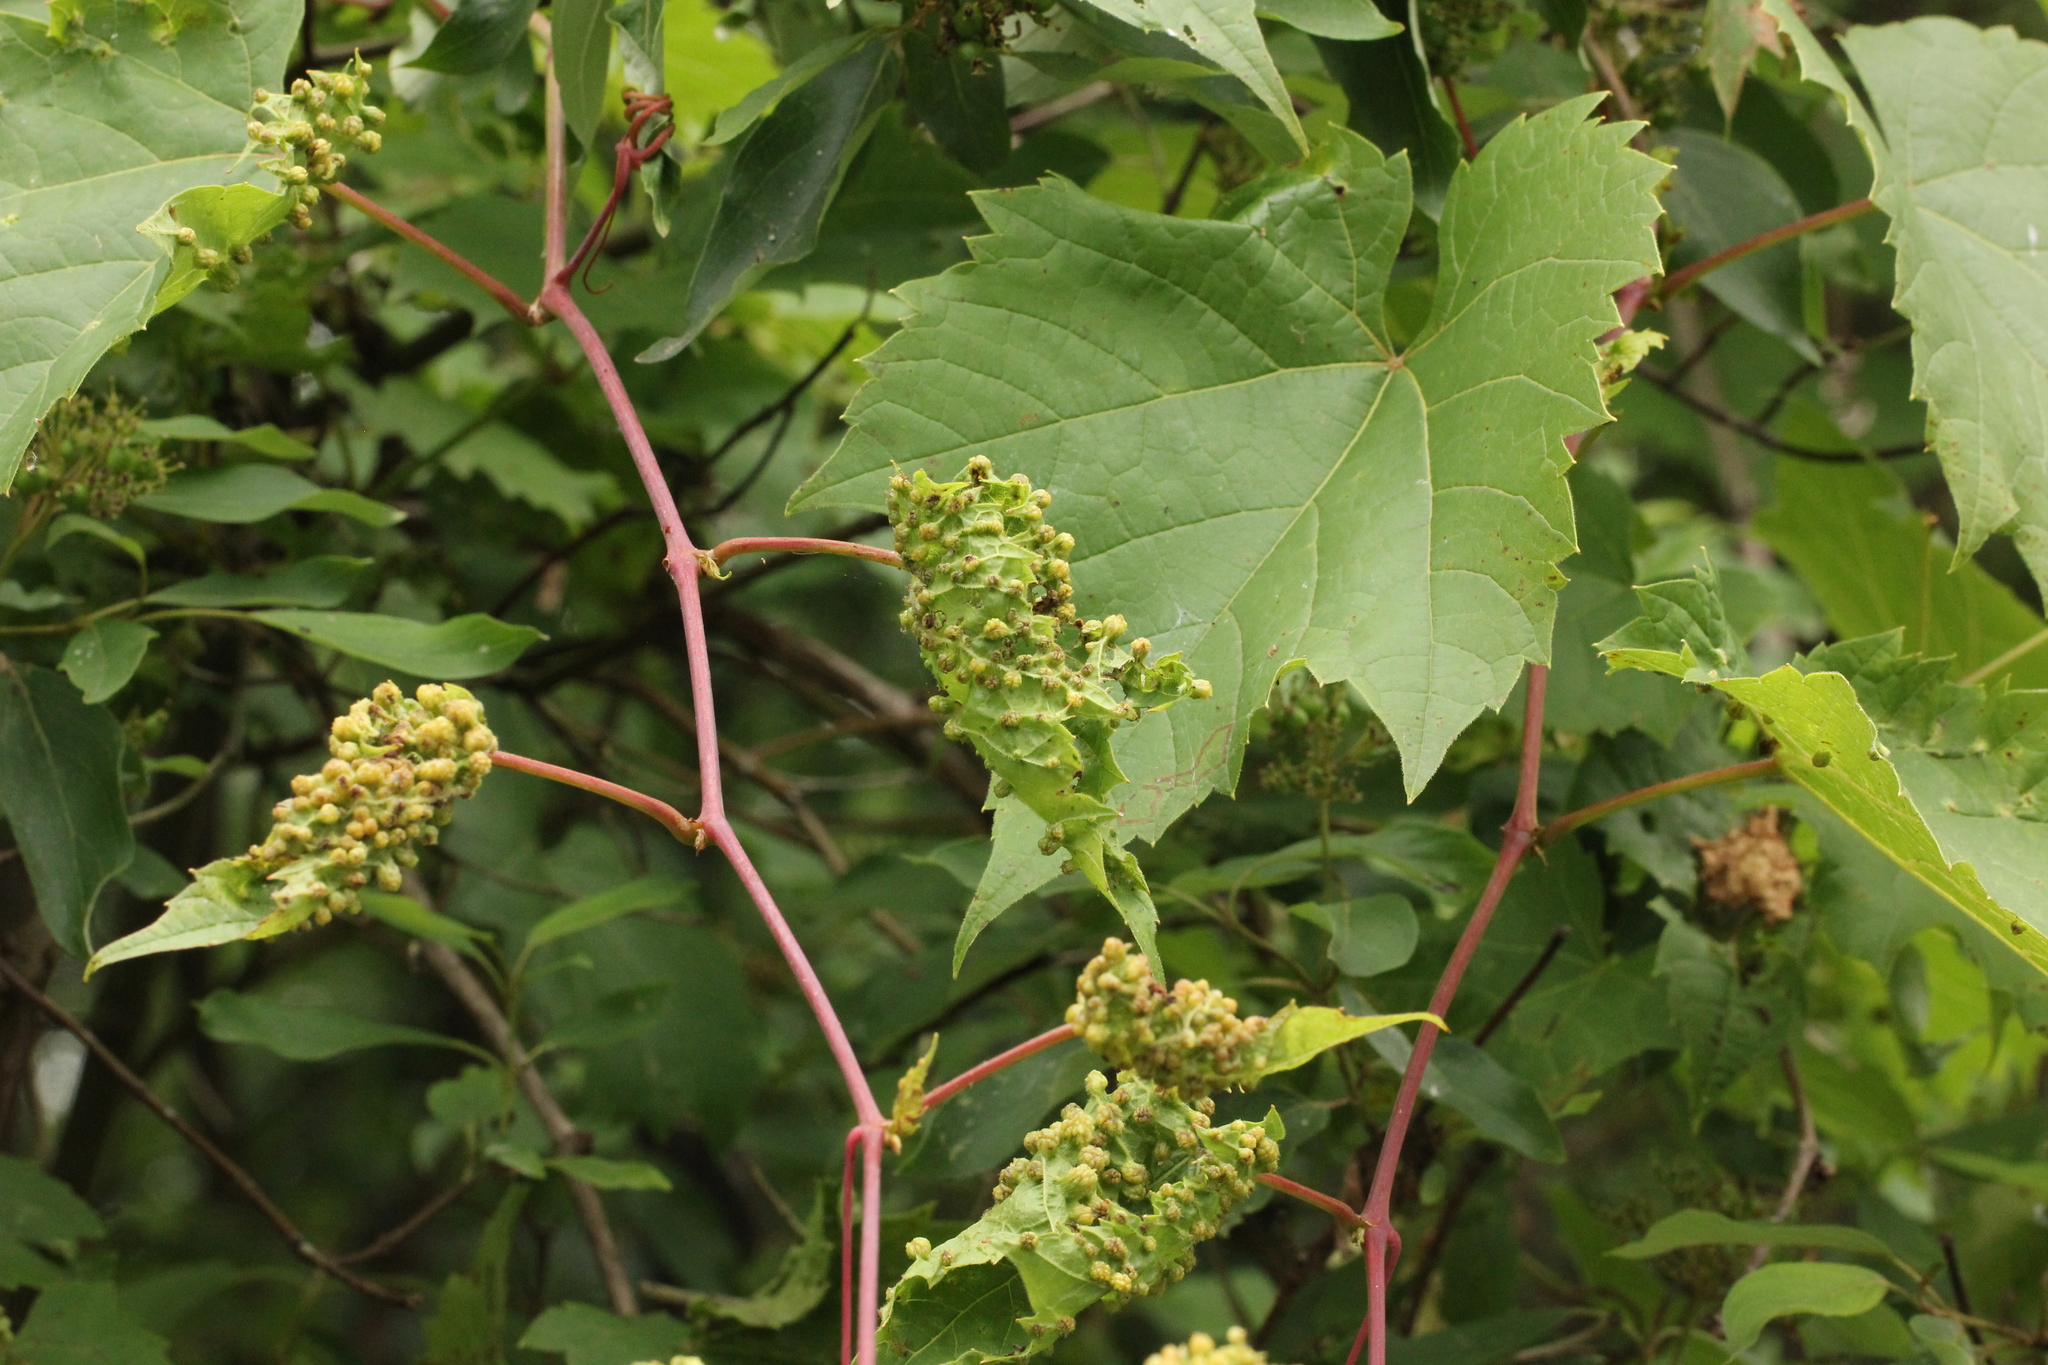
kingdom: Animalia
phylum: Arthropoda
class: Insecta
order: Hemiptera
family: Phylloxeridae
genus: Daktulosphaira
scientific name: Daktulosphaira vitifoliae
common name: Grape phylloxera
